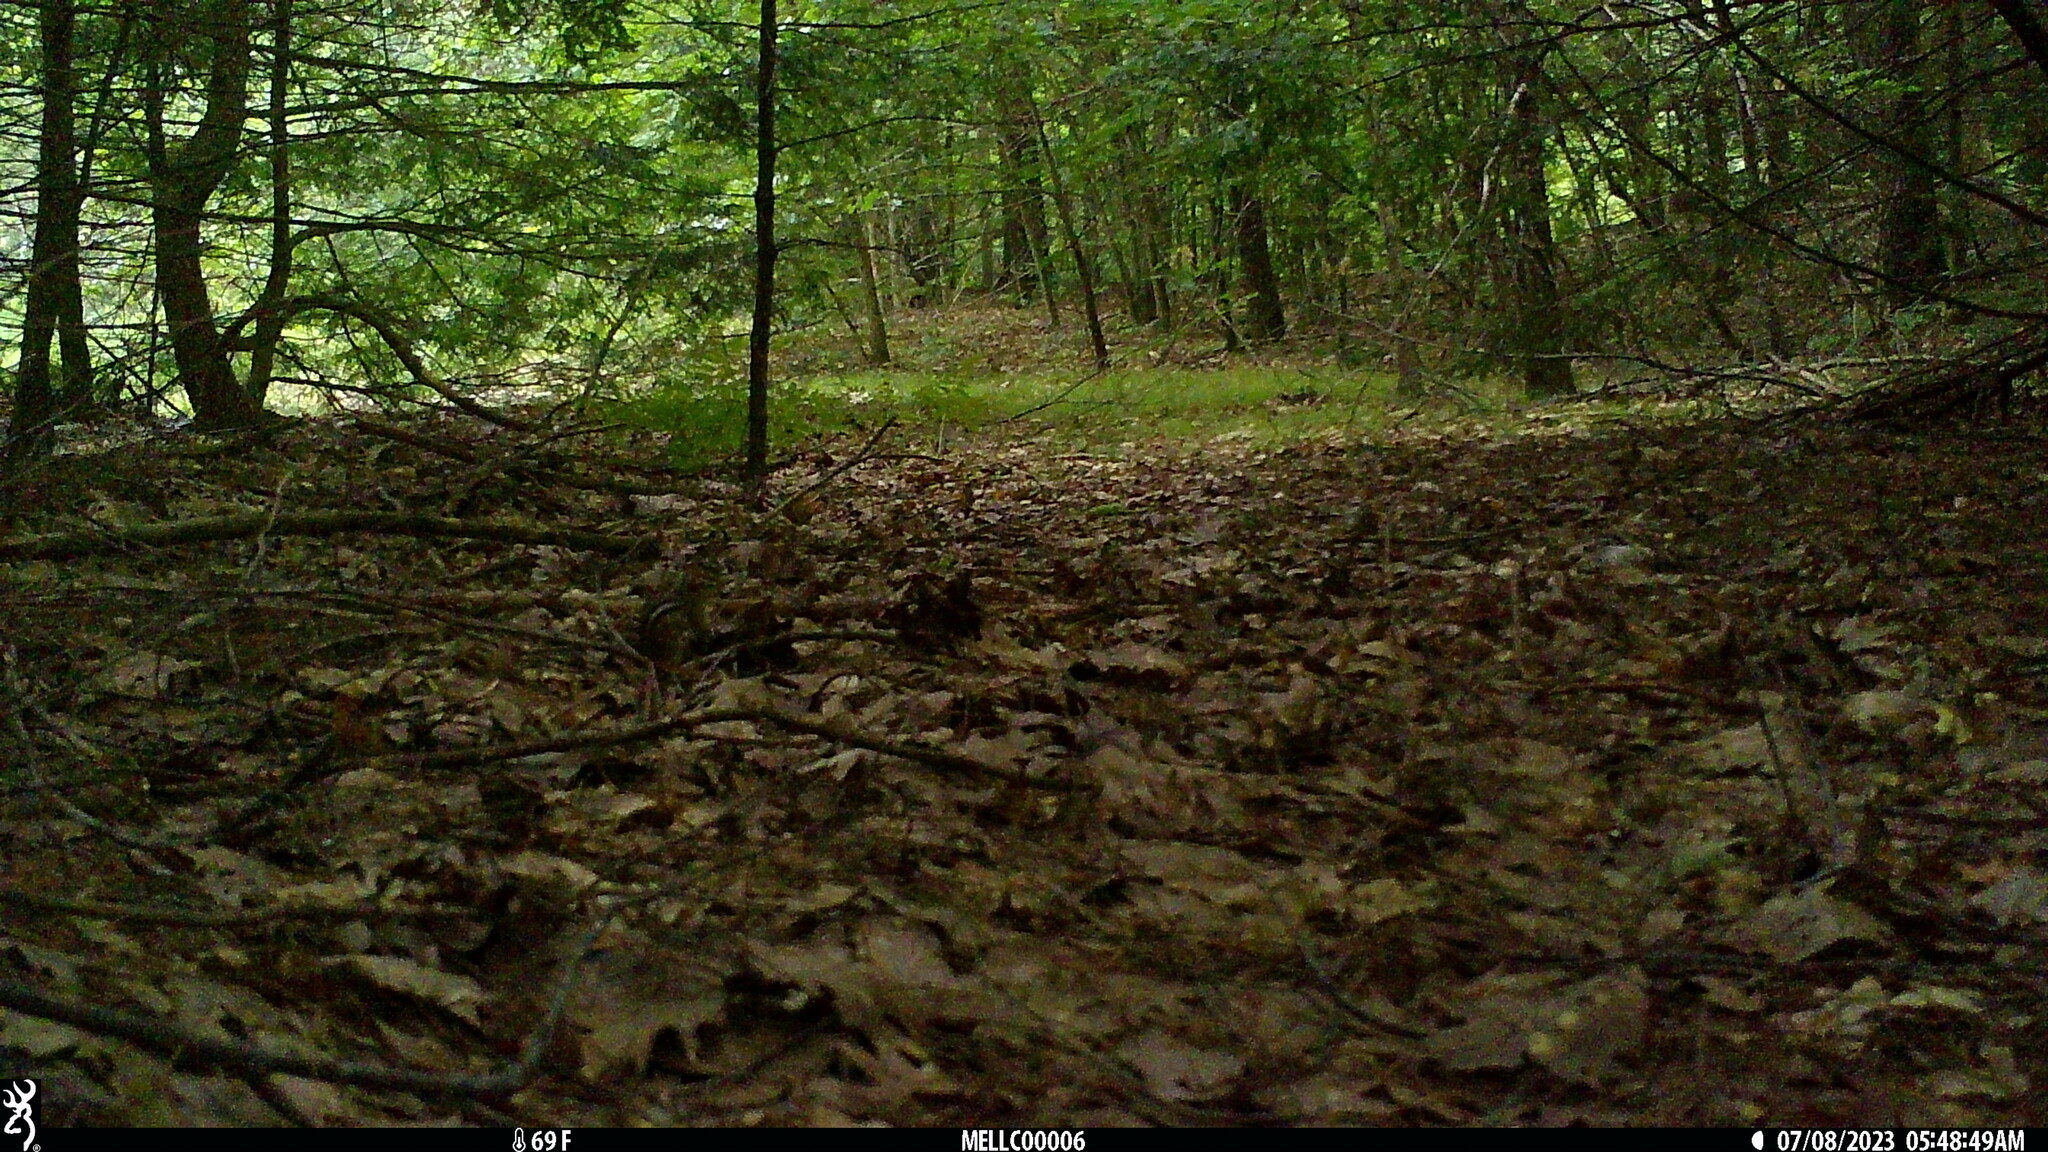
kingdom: Animalia
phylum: Chordata
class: Mammalia
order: Rodentia
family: Sciuridae
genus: Tamias
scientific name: Tamias striatus
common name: Eastern chipmunk
